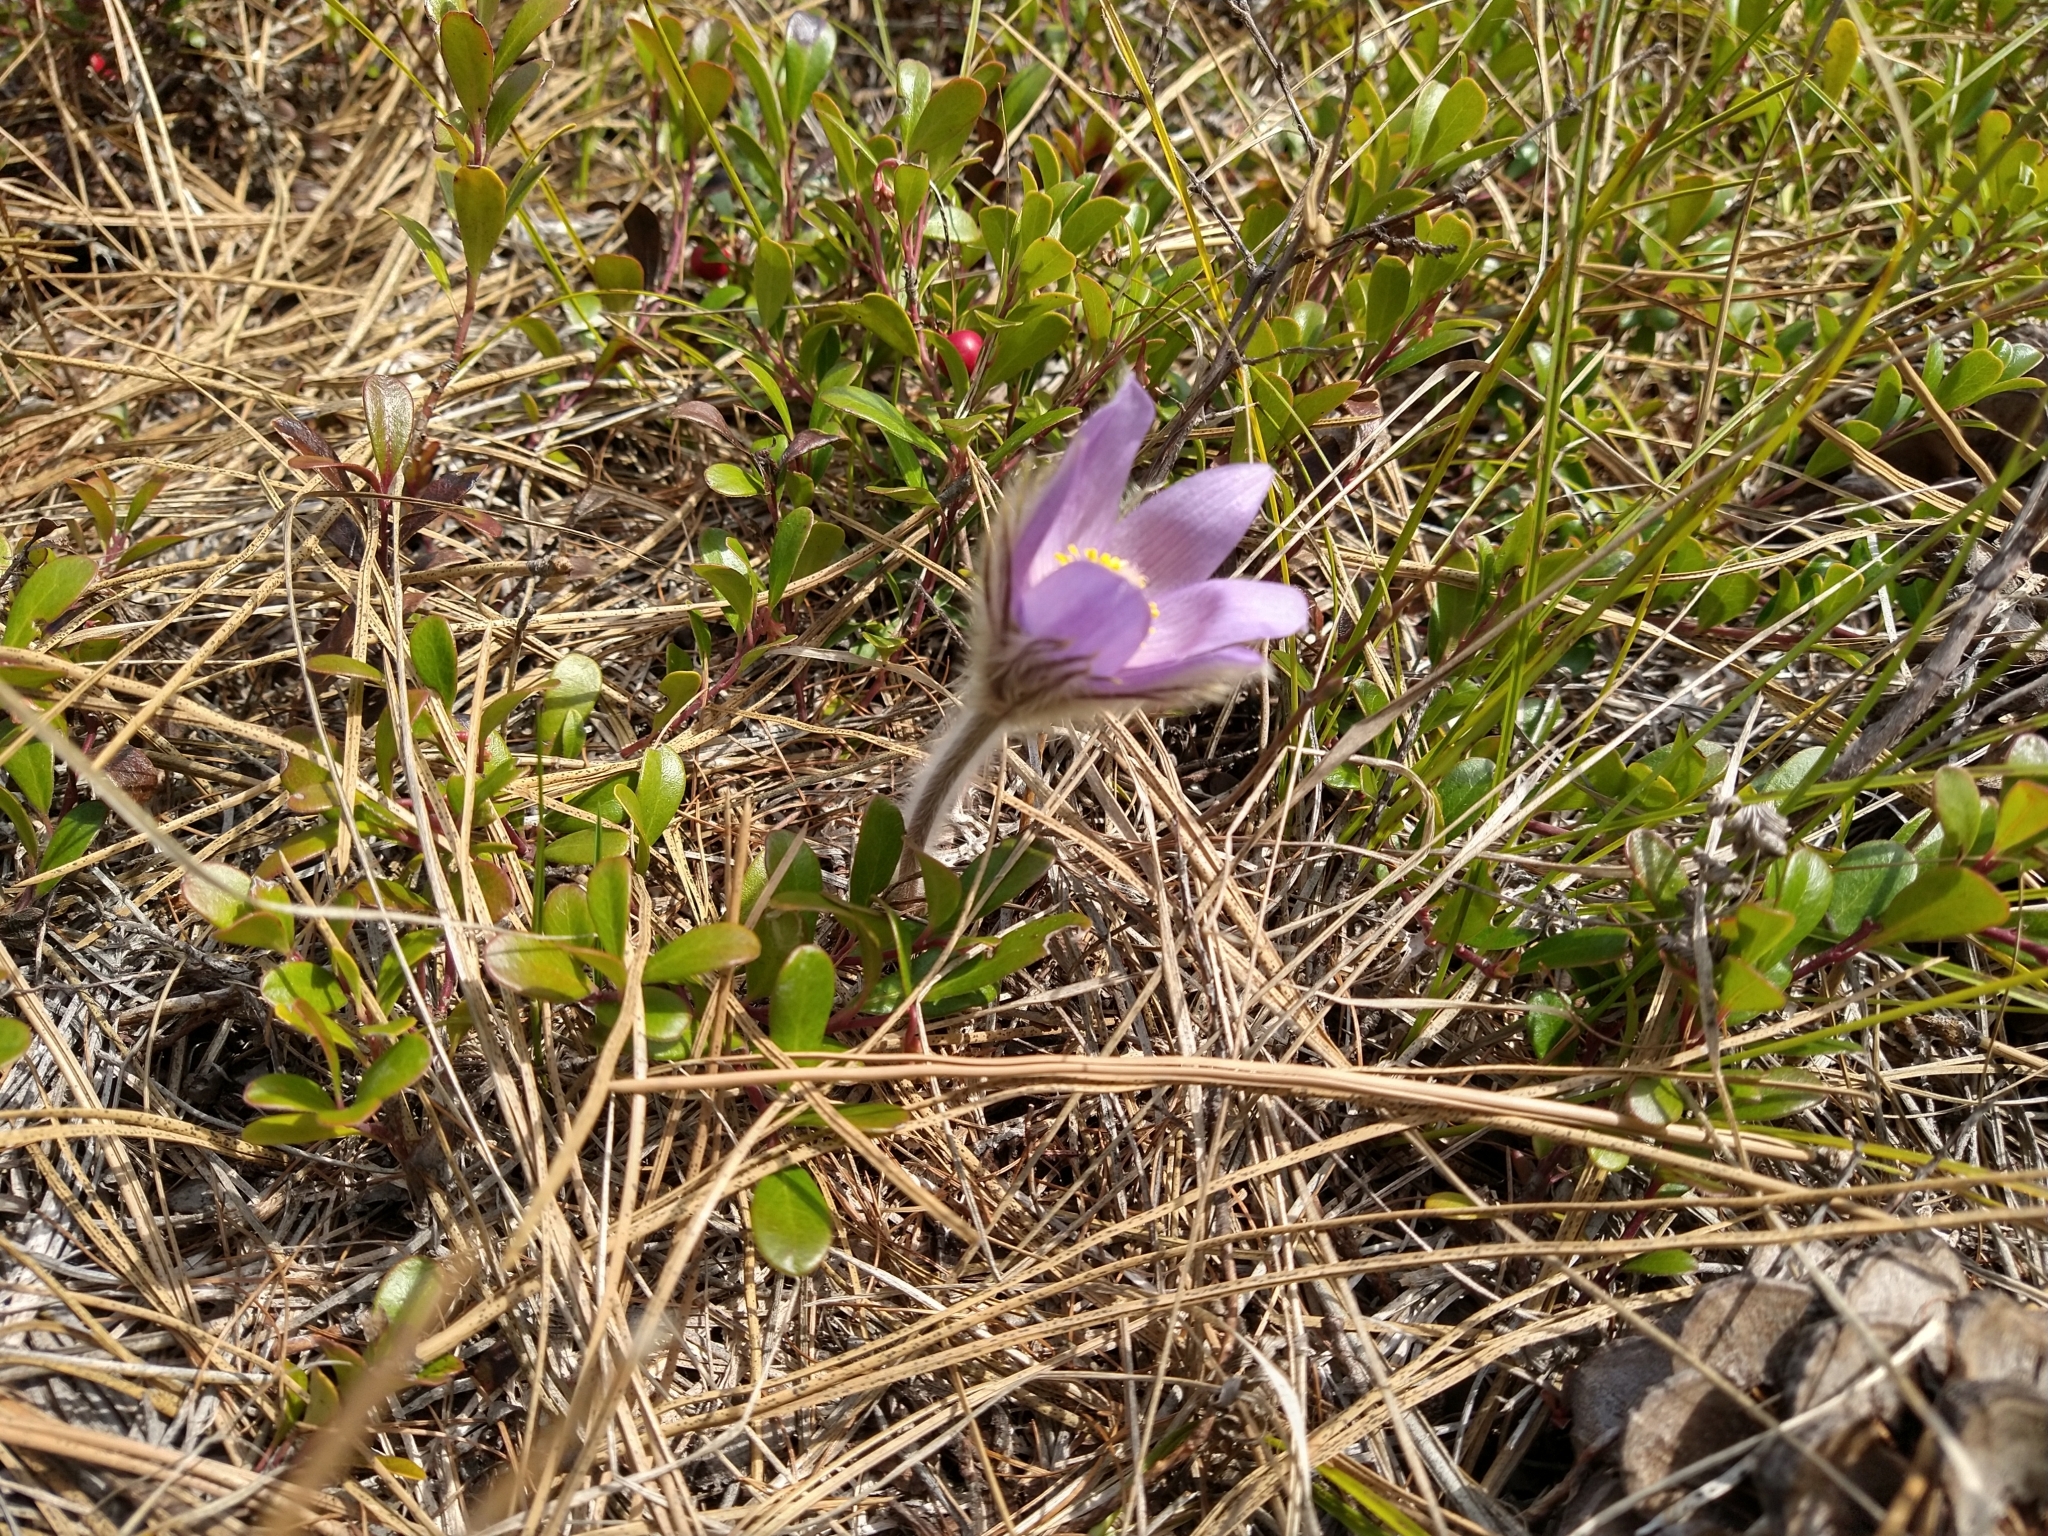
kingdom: Plantae
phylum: Tracheophyta
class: Magnoliopsida
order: Ranunculales
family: Ranunculaceae
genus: Pulsatilla
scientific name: Pulsatilla nuttalliana
